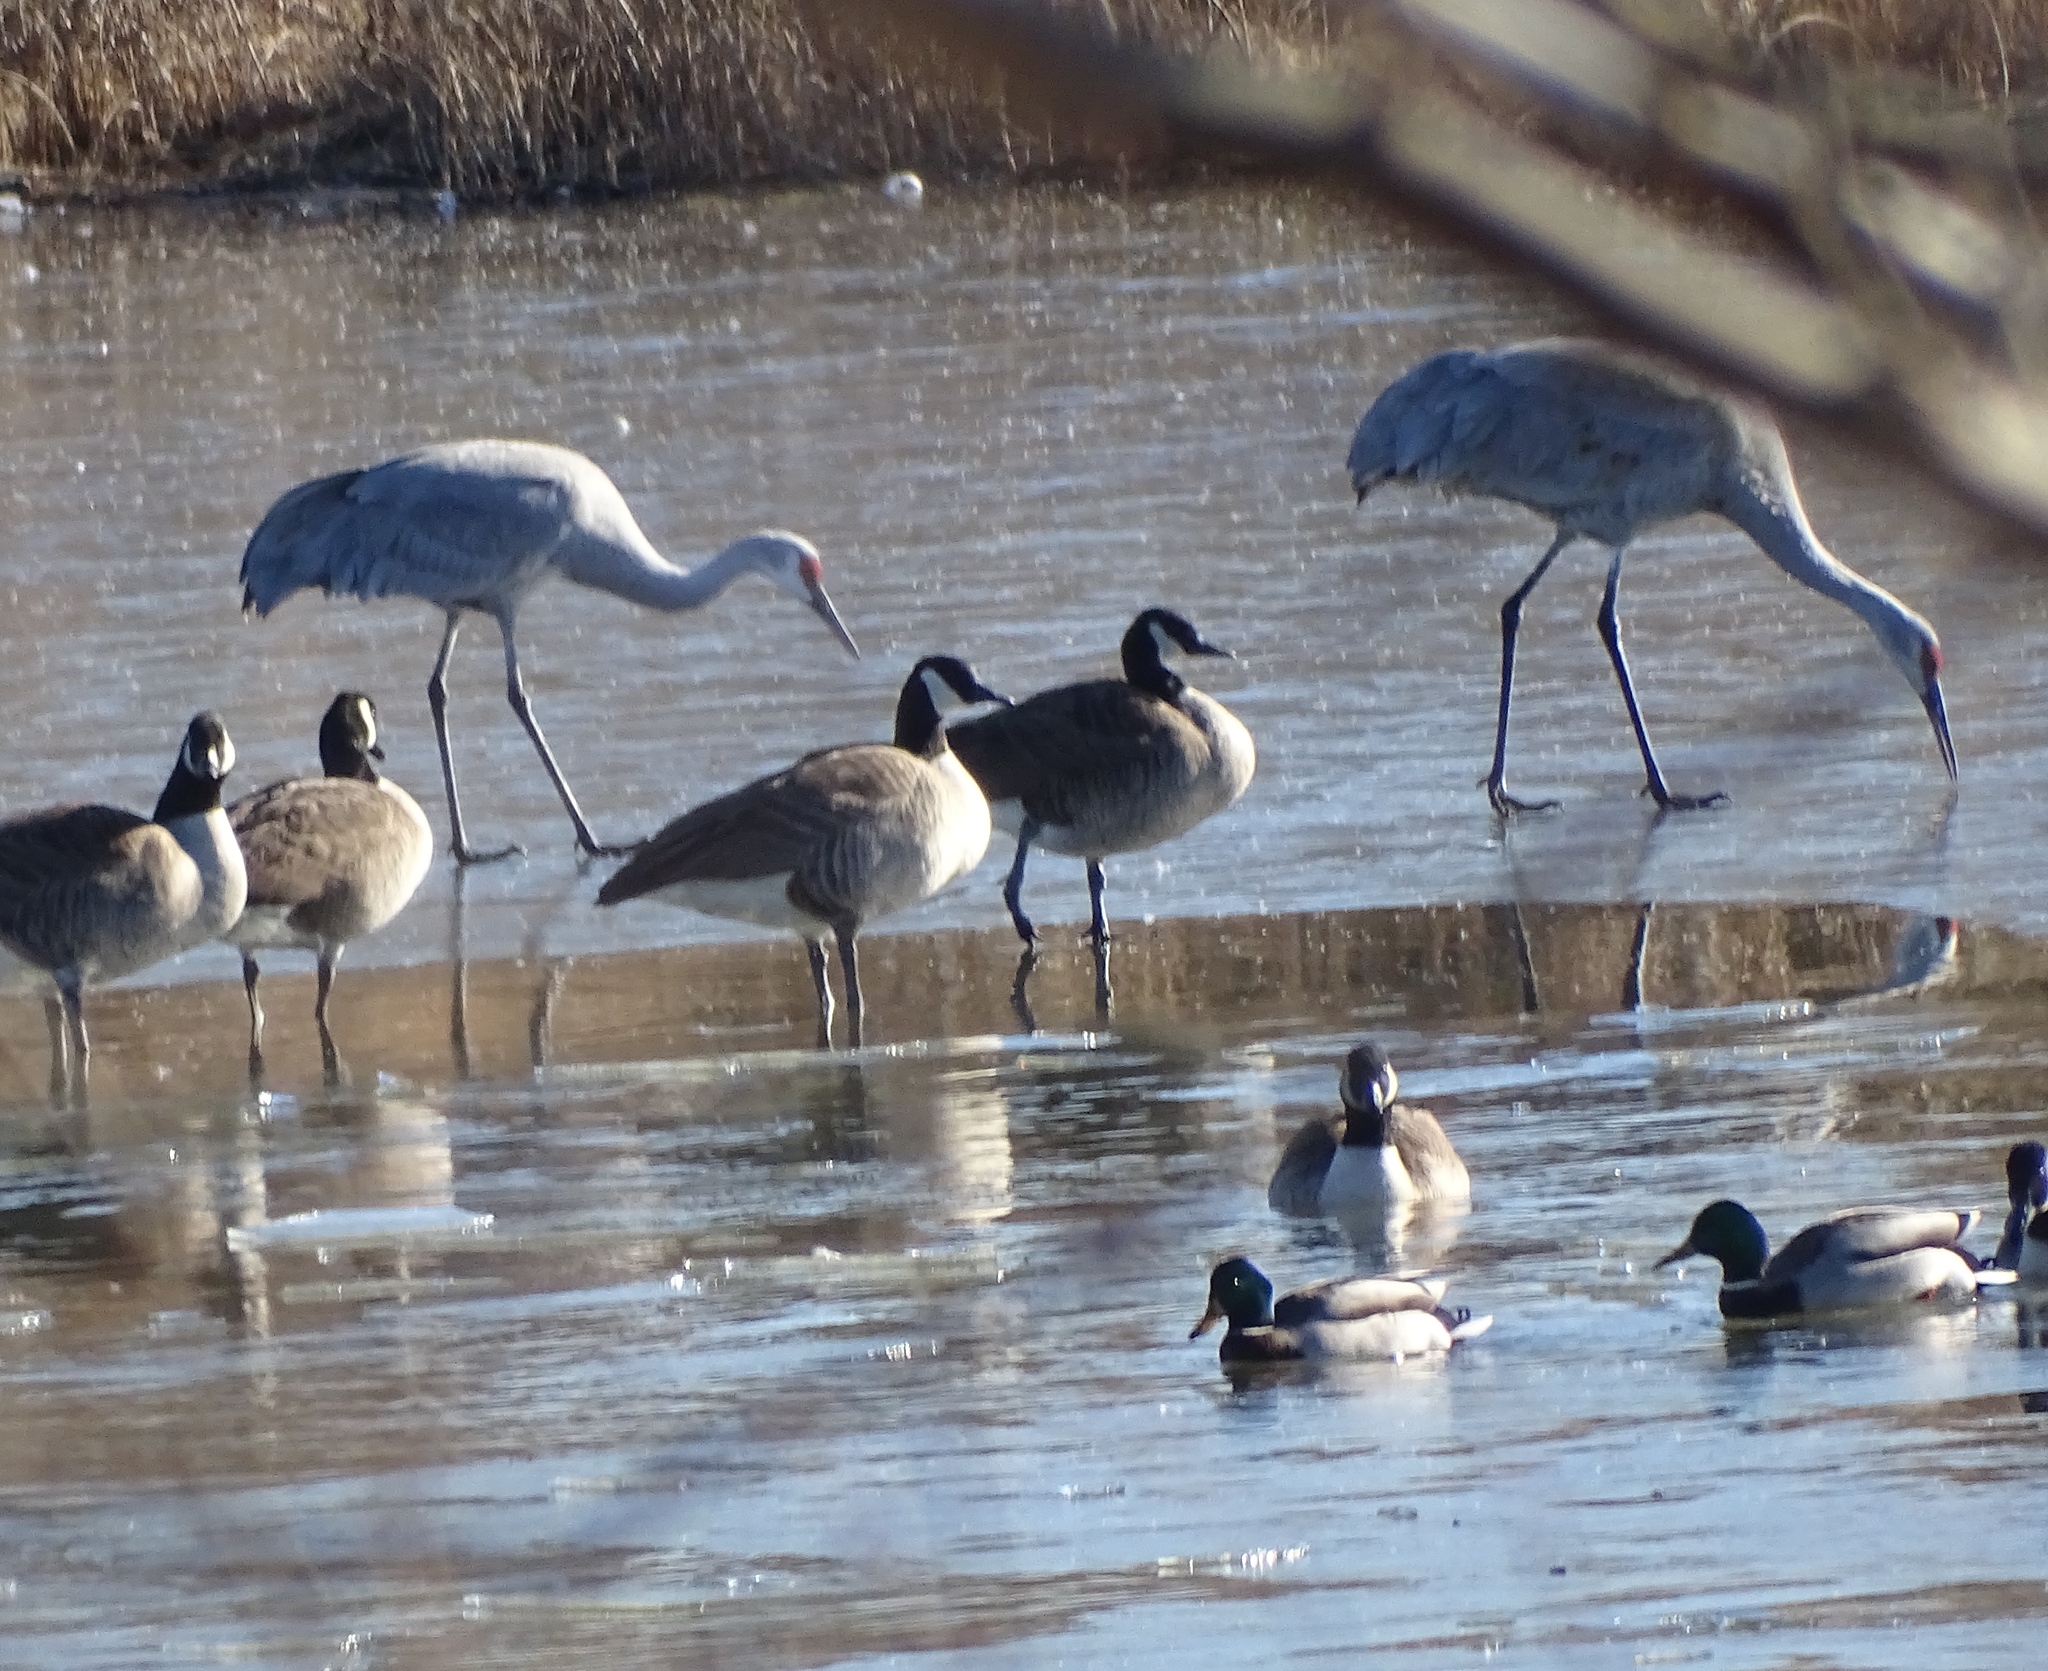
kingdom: Animalia
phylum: Chordata
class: Aves
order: Gruiformes
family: Gruidae
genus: Grus
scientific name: Grus canadensis
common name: Sandhill crane
